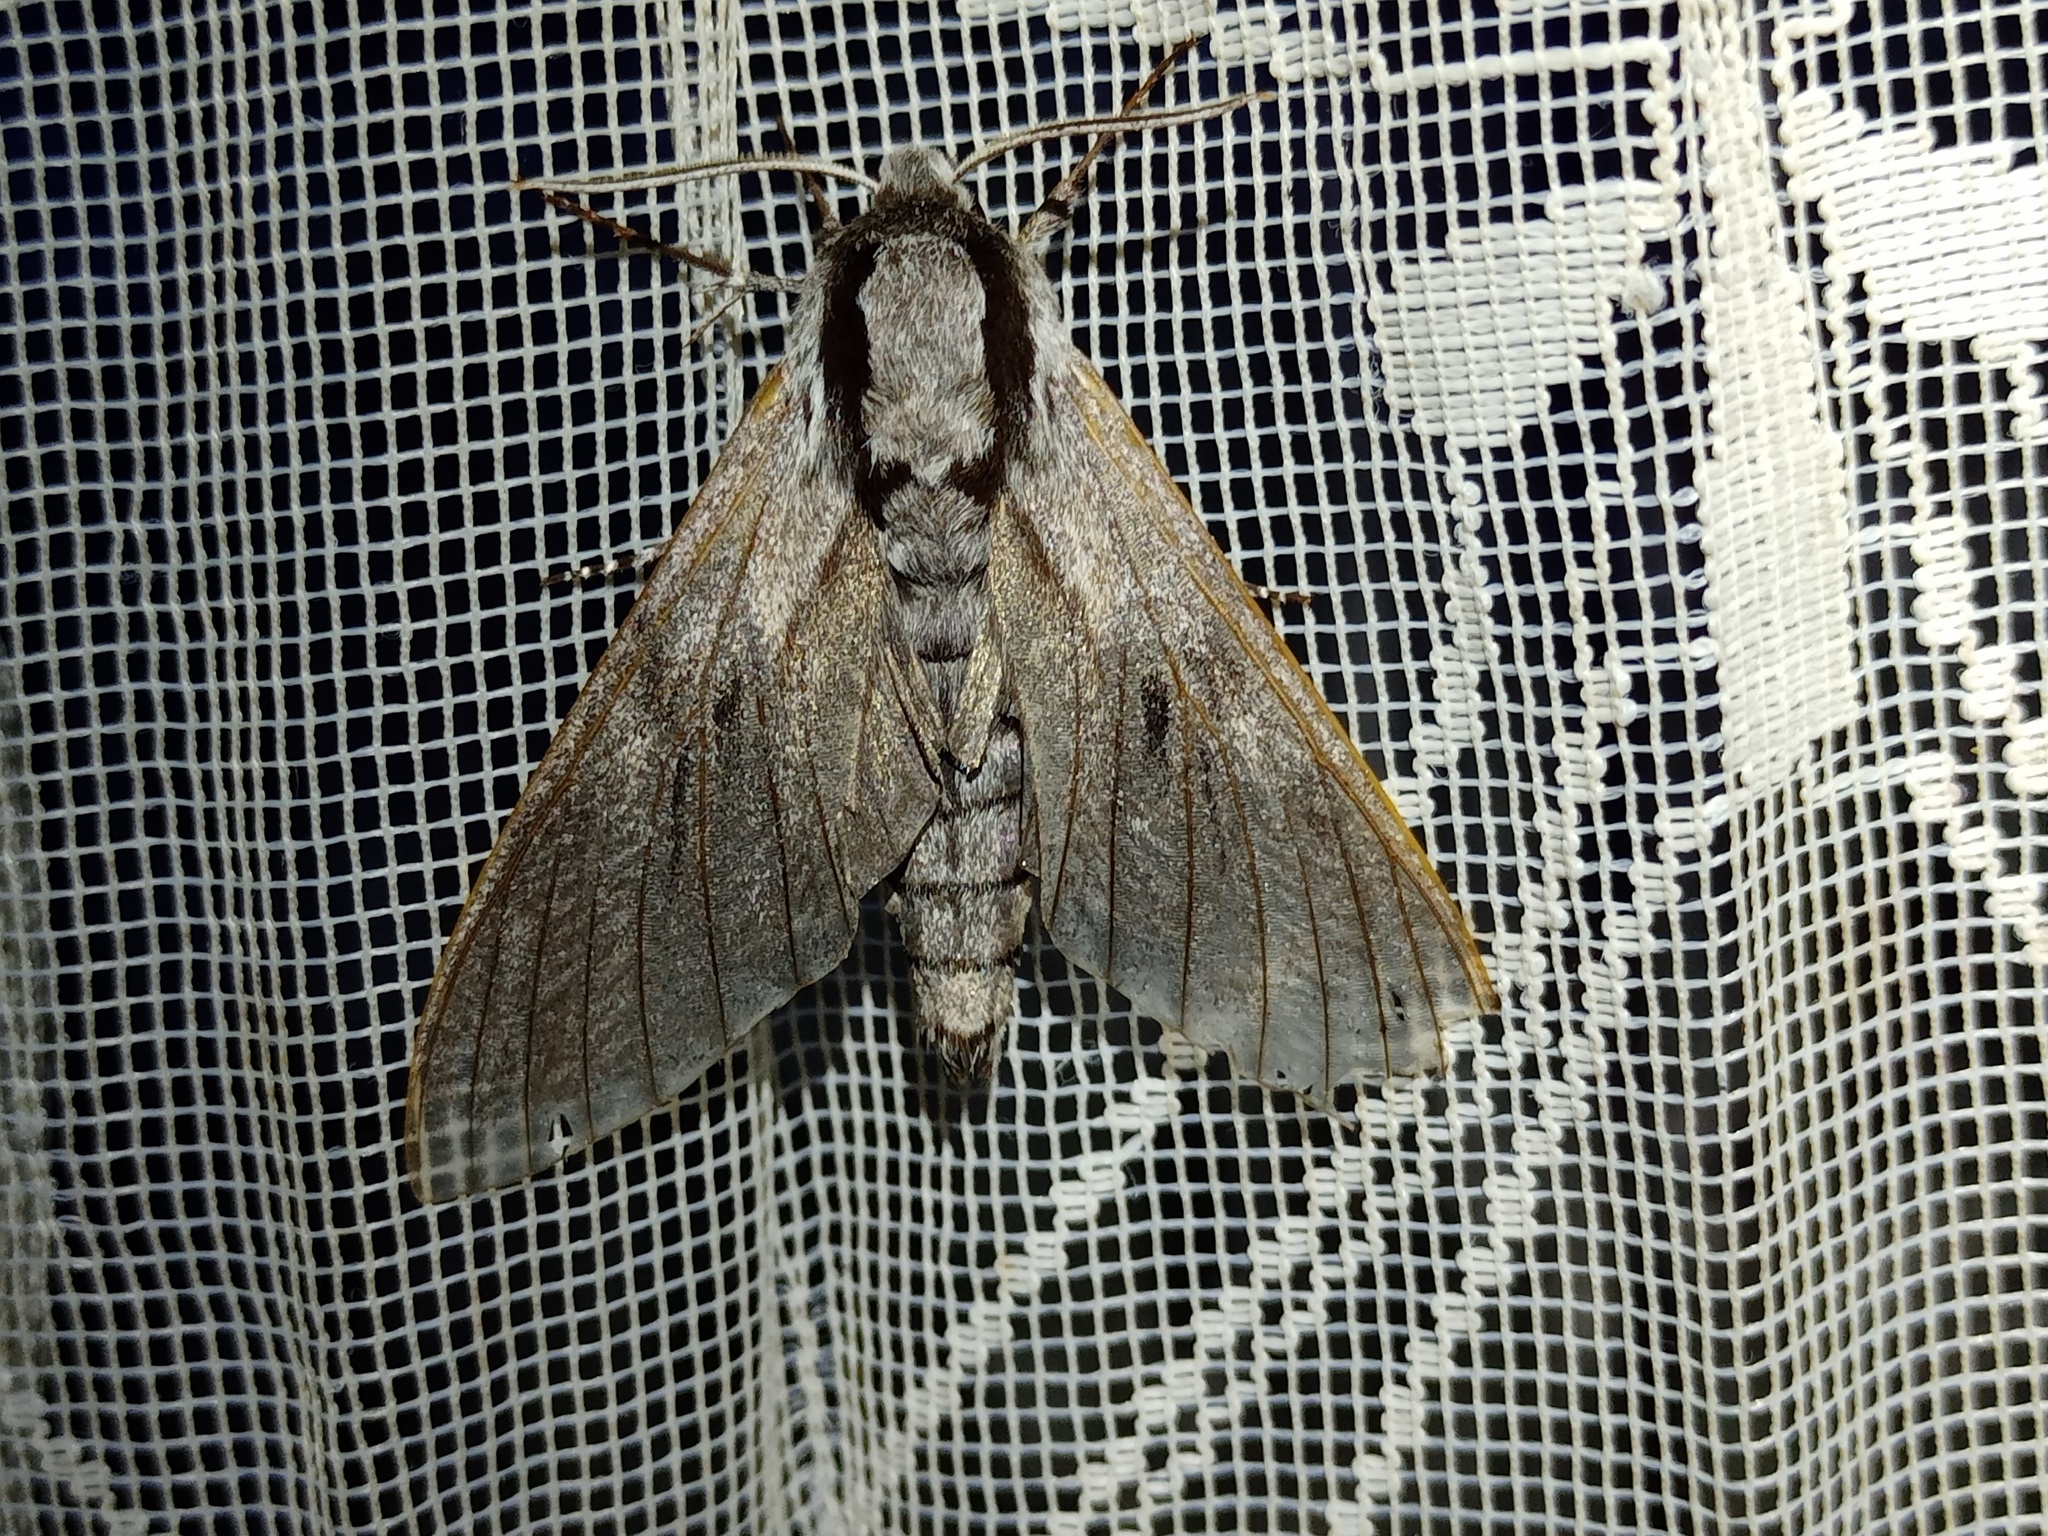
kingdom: Animalia
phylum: Arthropoda
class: Insecta
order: Lepidoptera
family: Sphingidae
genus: Sphinx
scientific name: Sphinx pinastri
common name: Pine hawk-moth
